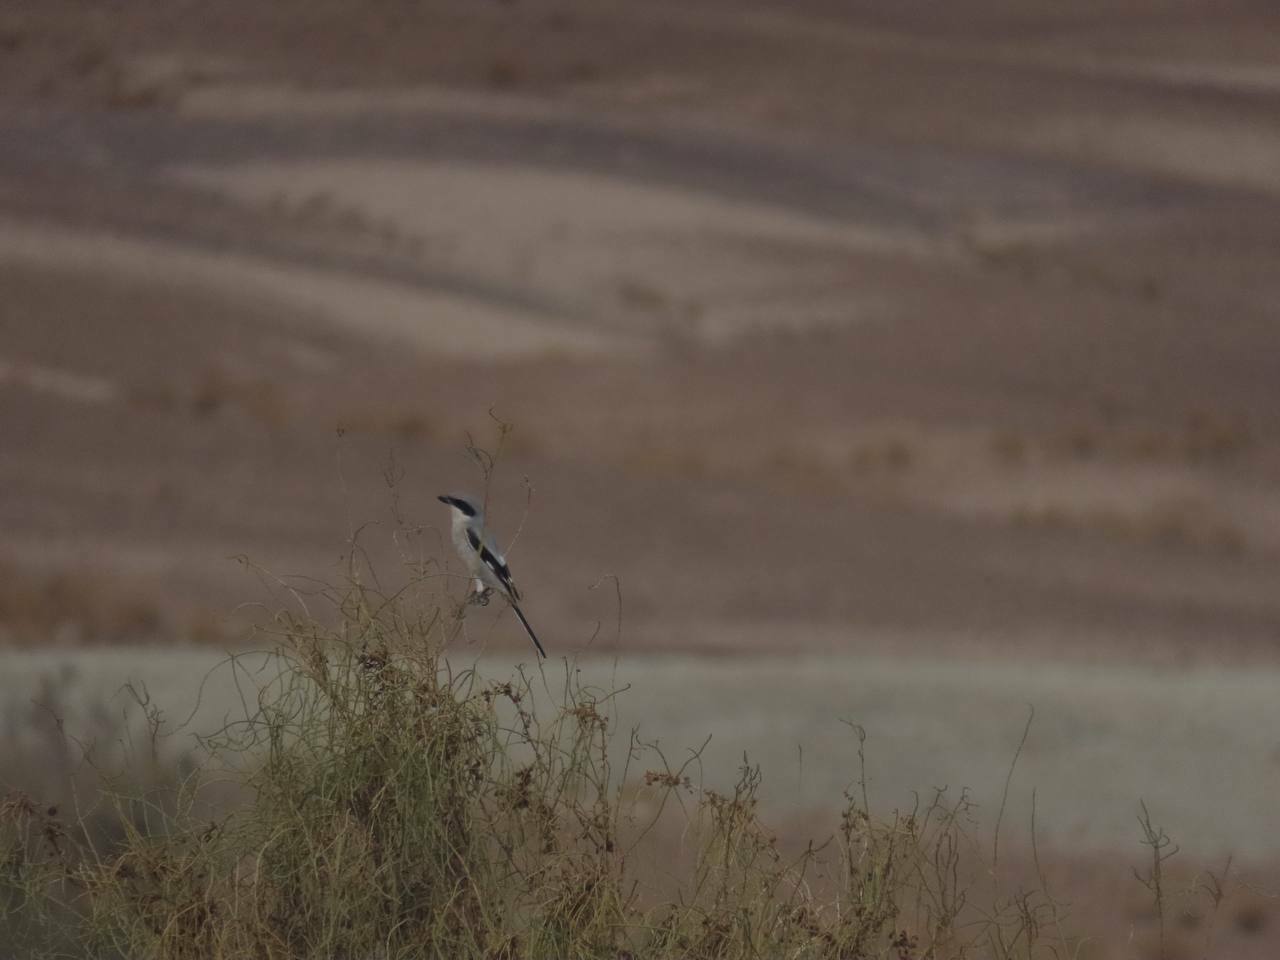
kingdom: Animalia
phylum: Chordata
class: Aves
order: Passeriformes
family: Laniidae
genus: Lanius
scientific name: Lanius excubitor
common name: Great grey shrike
